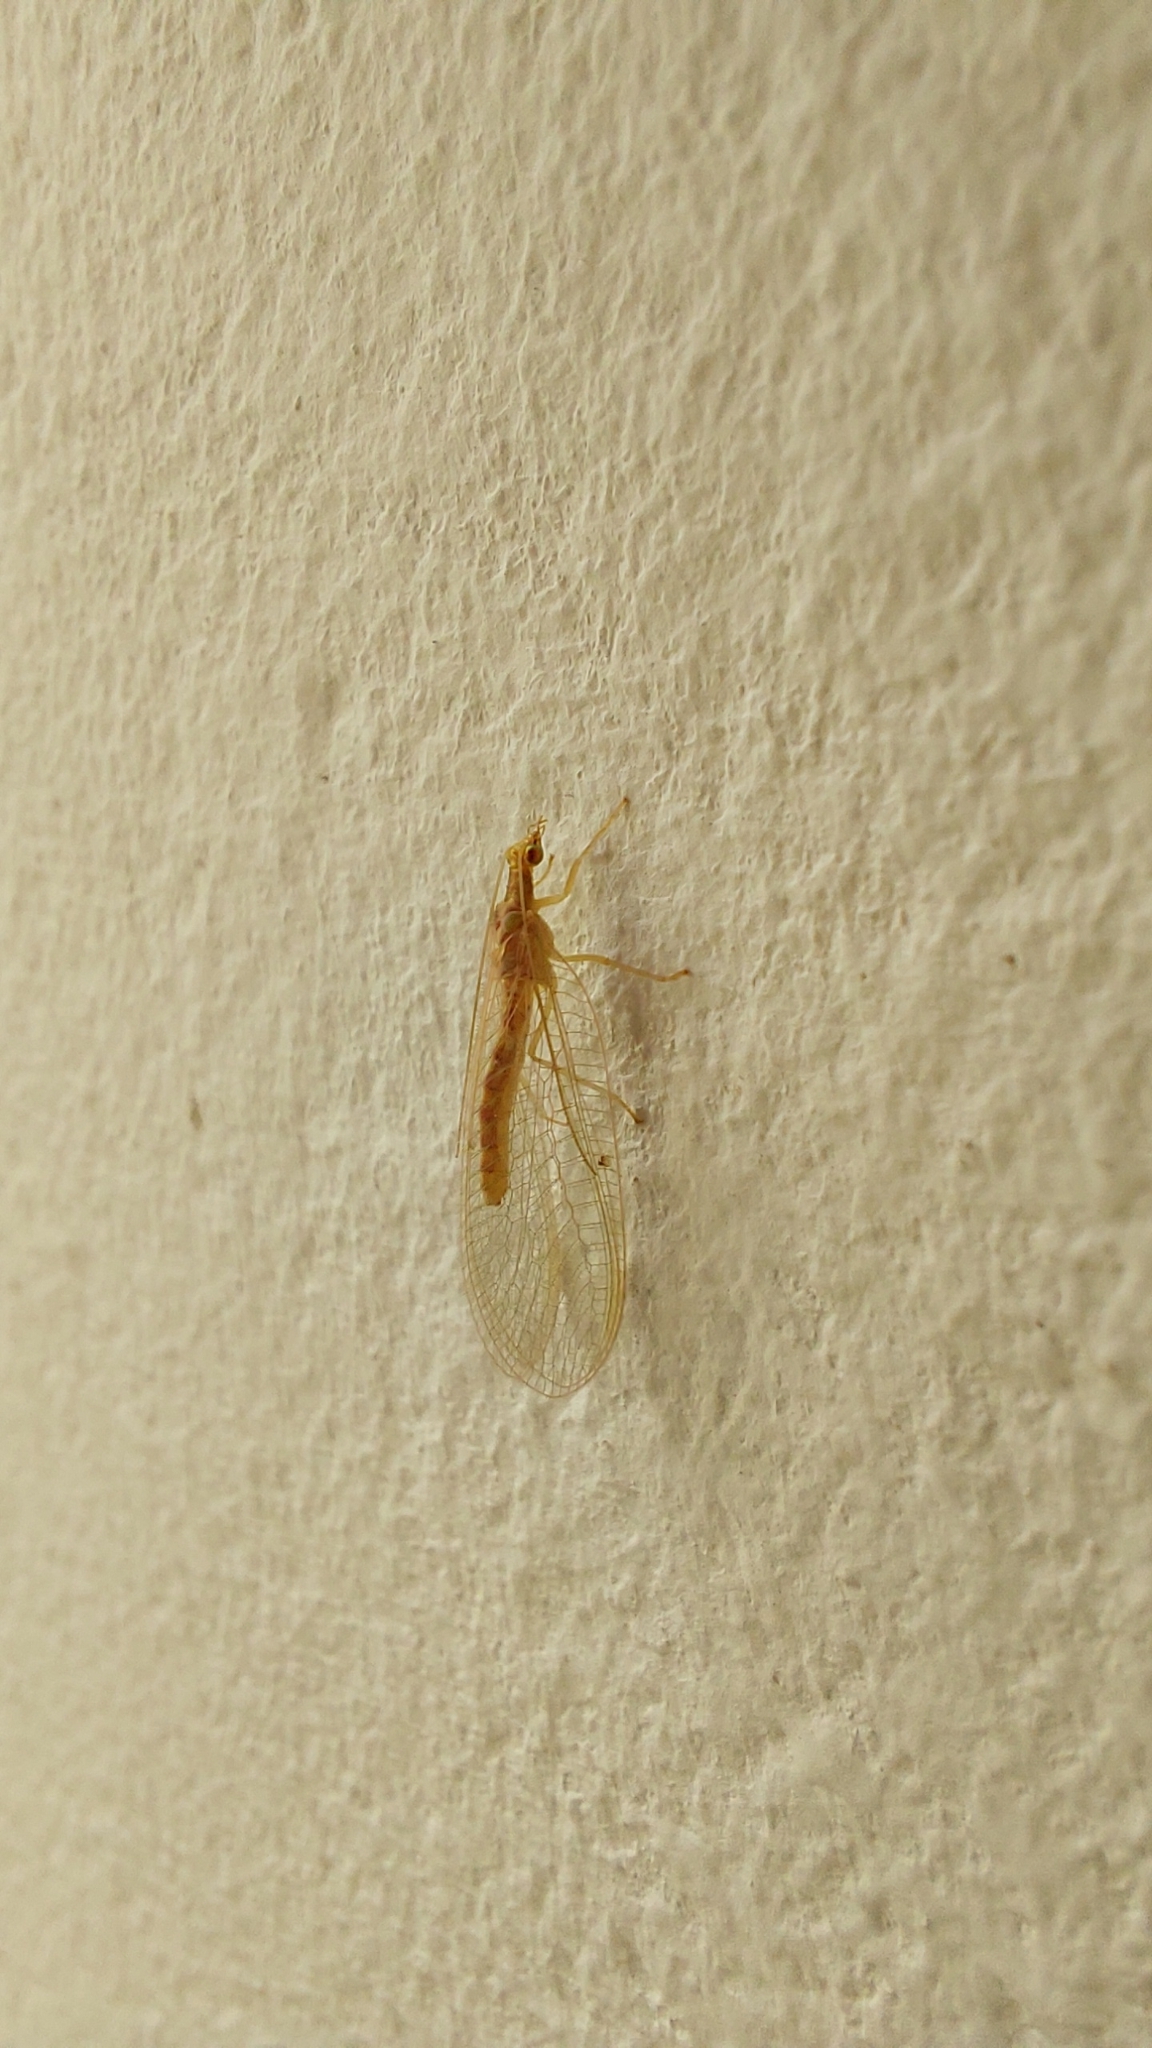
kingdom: Animalia
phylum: Arthropoda
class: Insecta
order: Neuroptera
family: Chrysopidae
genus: Chrysoperla
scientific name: Chrysoperla
